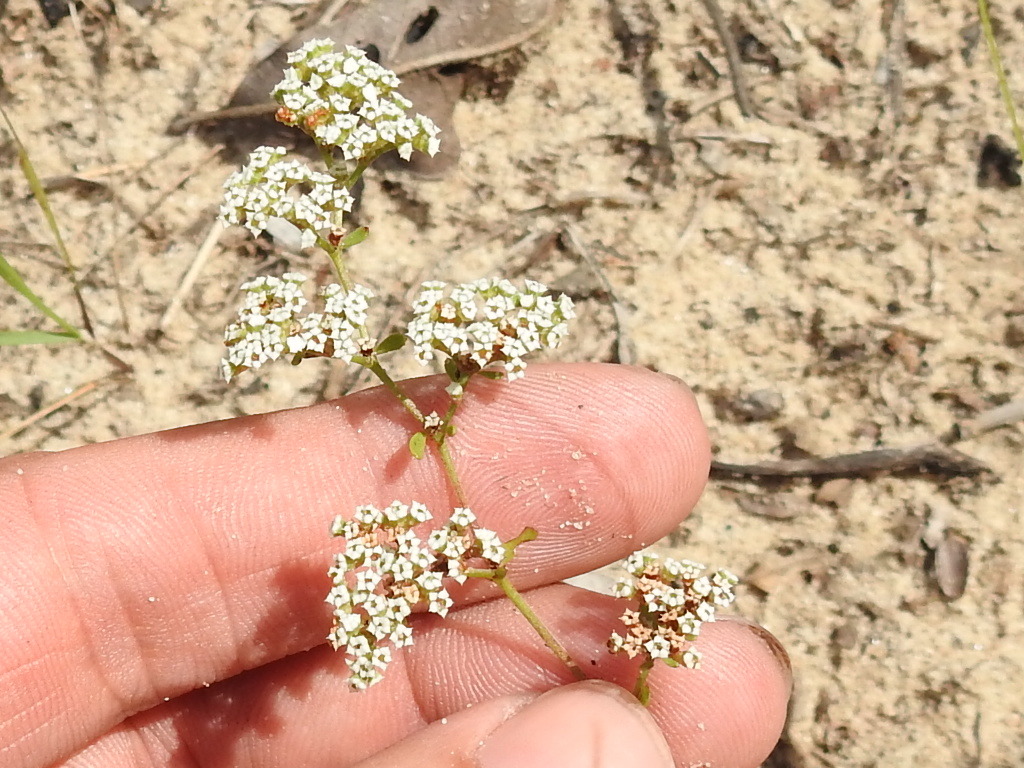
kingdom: Plantae
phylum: Tracheophyta
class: Magnoliopsida
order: Caryophyllales
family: Caryophyllaceae
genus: Paronychia
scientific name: Paronychia drummondii
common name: Drummond's nailwort
